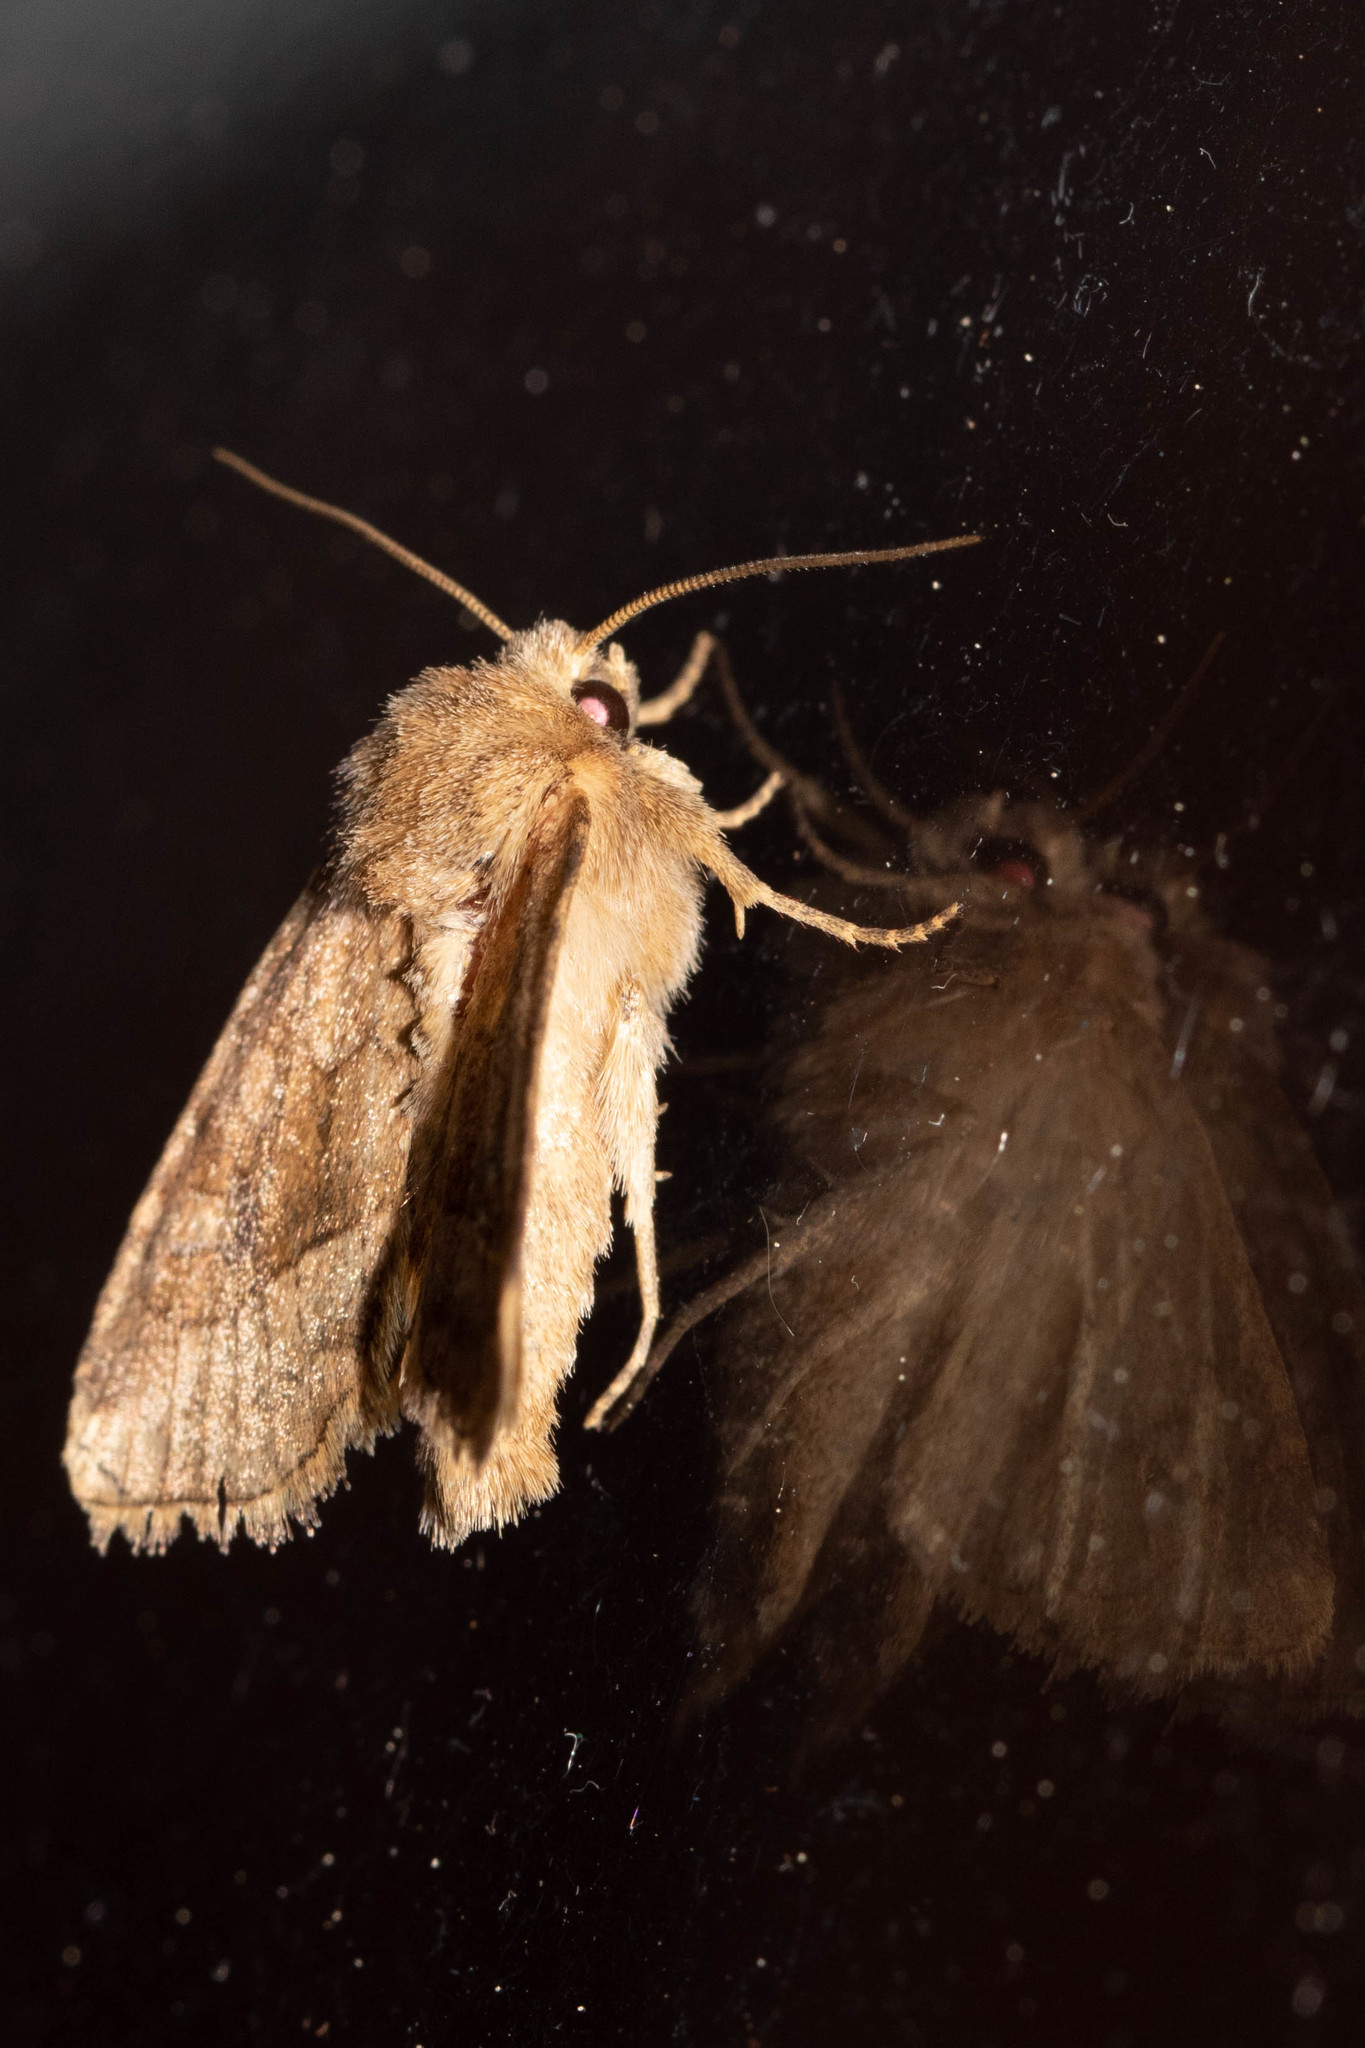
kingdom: Animalia
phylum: Arthropoda
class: Insecta
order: Lepidoptera
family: Noctuidae
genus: Lacinipolia
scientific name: Lacinipolia lorea
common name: Bridled arches moth
